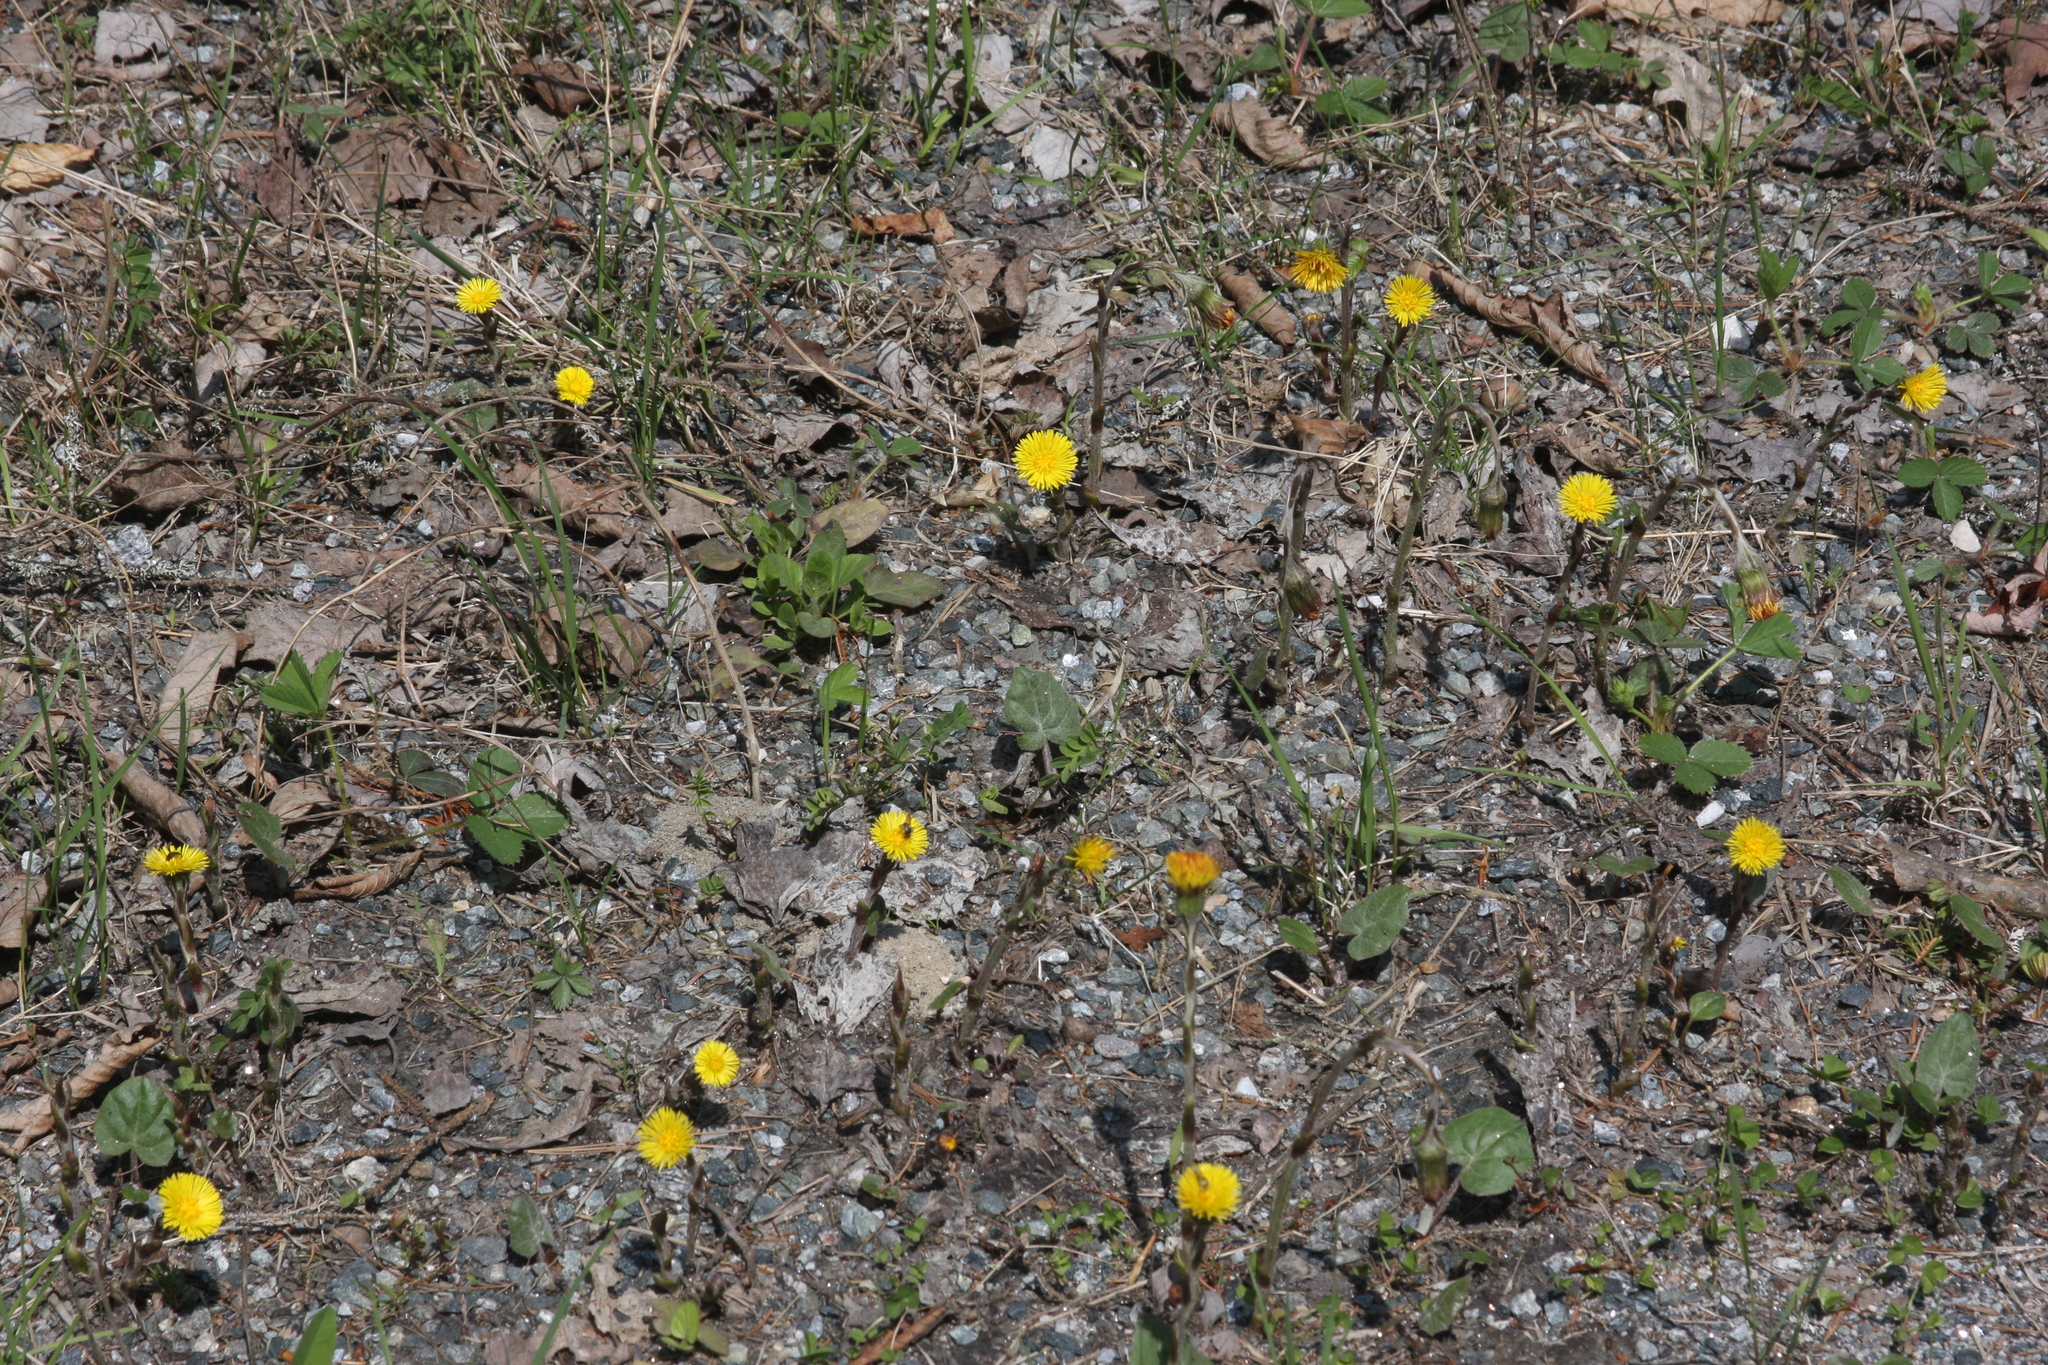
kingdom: Plantae
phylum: Tracheophyta
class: Magnoliopsida
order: Asterales
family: Asteraceae
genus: Tussilago
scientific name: Tussilago farfara
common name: Coltsfoot
